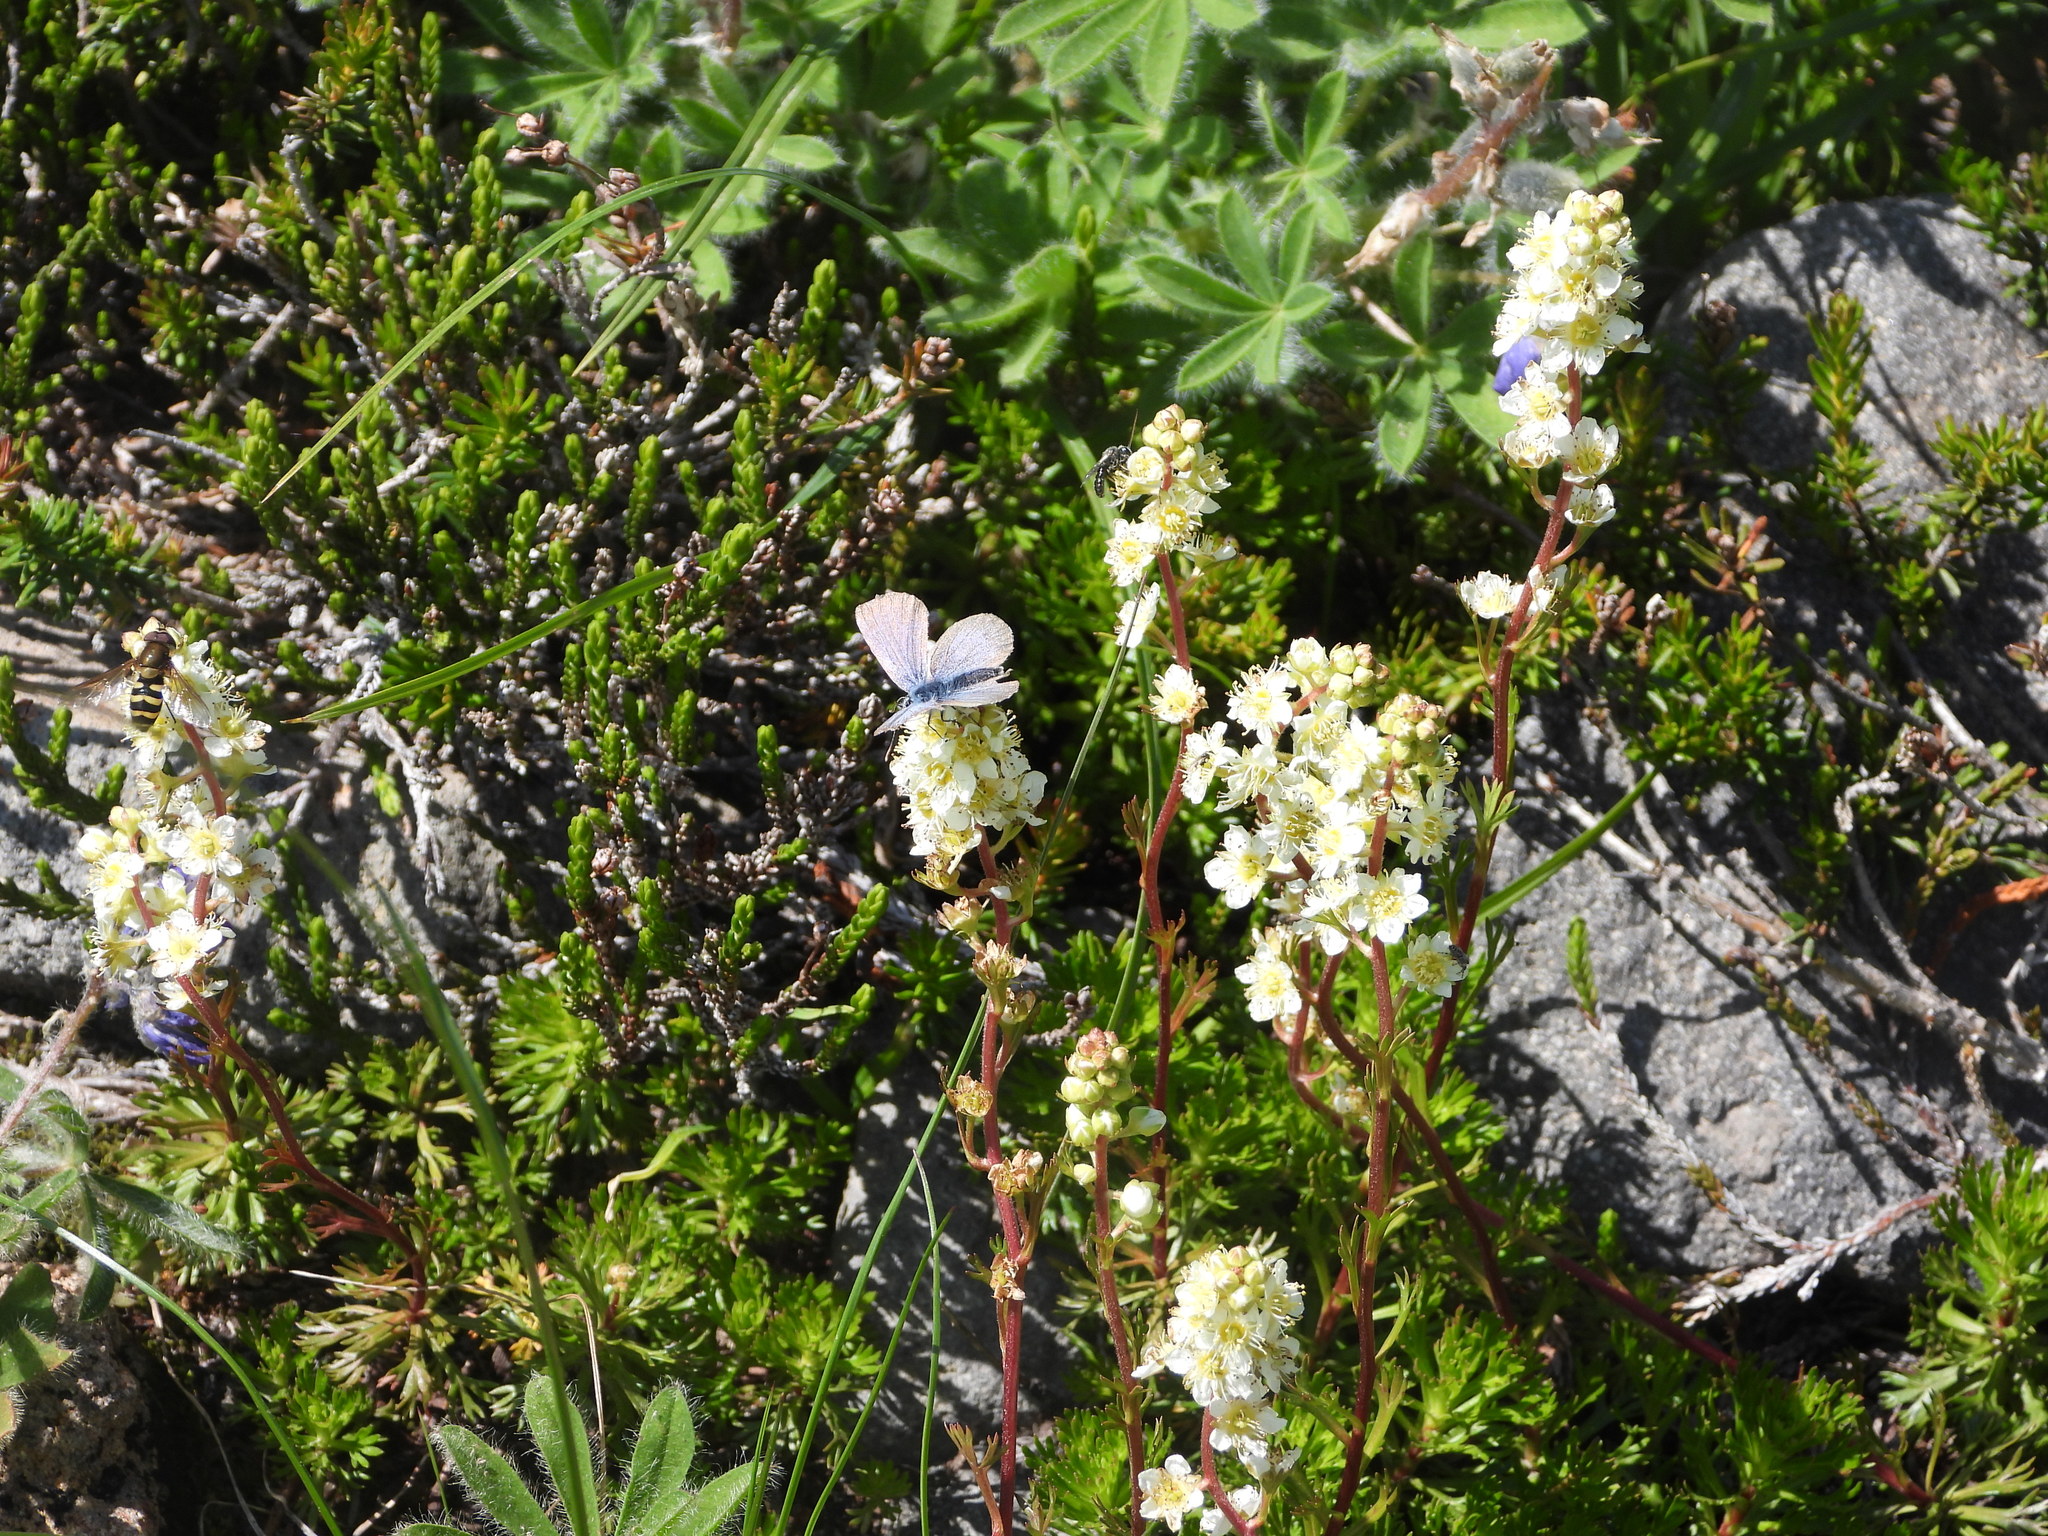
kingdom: Plantae
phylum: Tracheophyta
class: Magnoliopsida
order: Rosales
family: Rosaceae
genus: Luetkea
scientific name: Luetkea pectinata
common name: Partridgefoot
